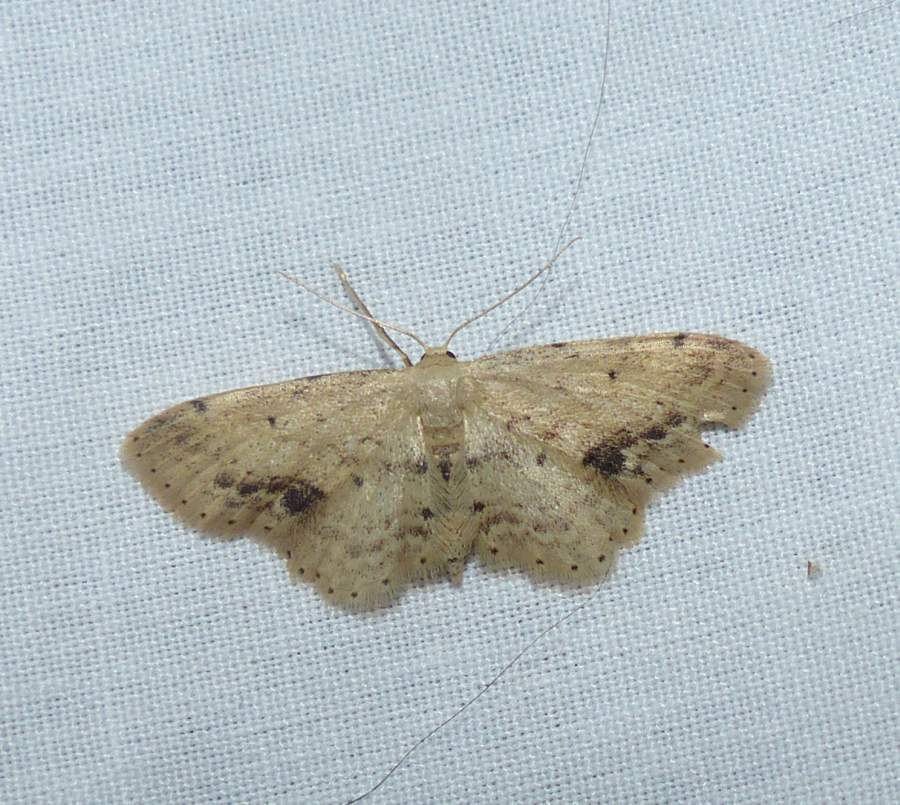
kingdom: Animalia
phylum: Arthropoda
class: Insecta
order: Lepidoptera
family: Geometridae
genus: Idaea
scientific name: Idaea dimidiata
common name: Single-dotted wave
